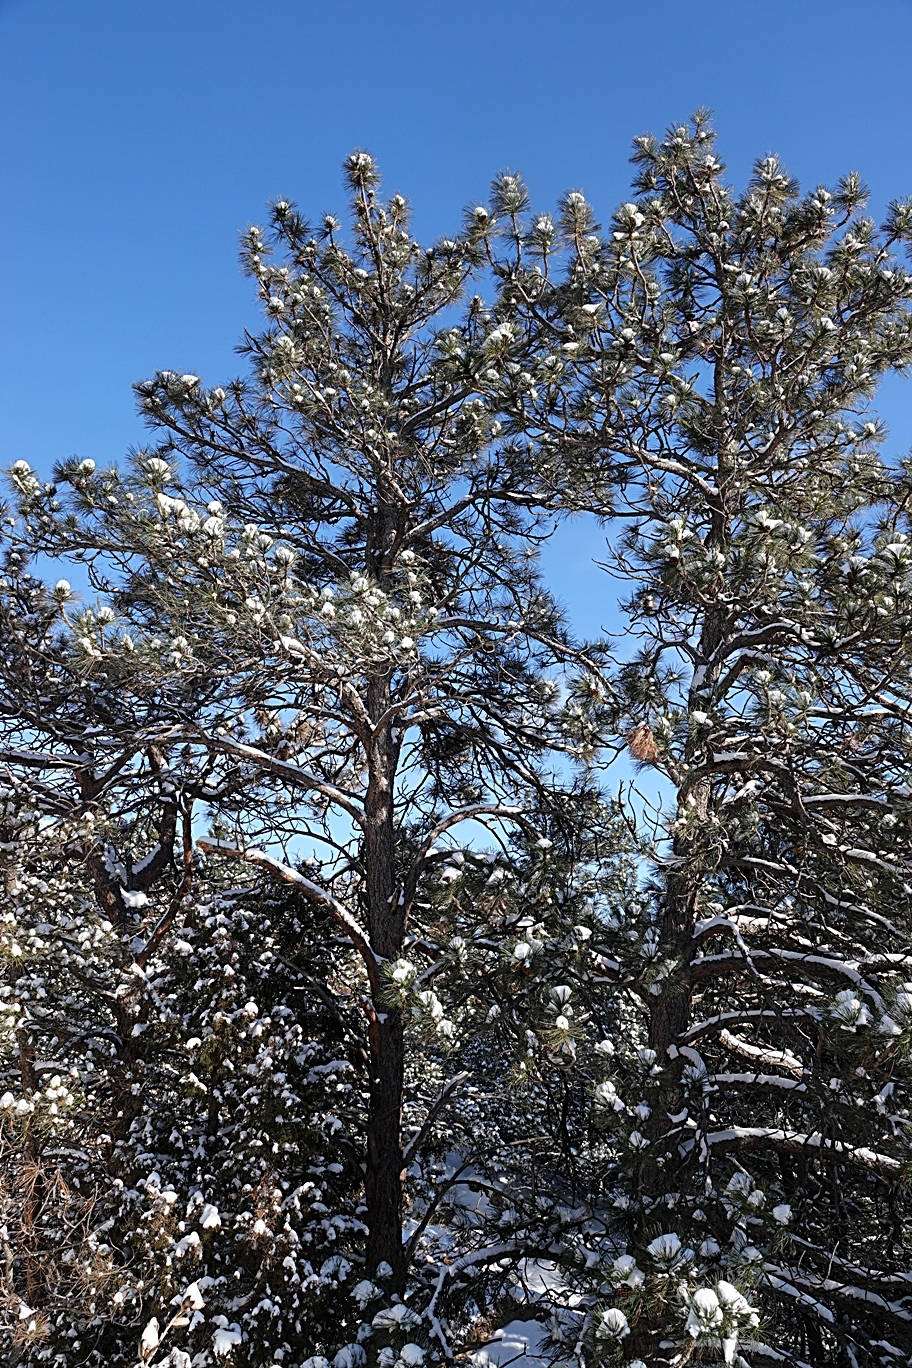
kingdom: Plantae
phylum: Tracheophyta
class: Pinopsida
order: Pinales
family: Pinaceae
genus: Pinus
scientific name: Pinus ponderosa
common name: Western yellow-pine
